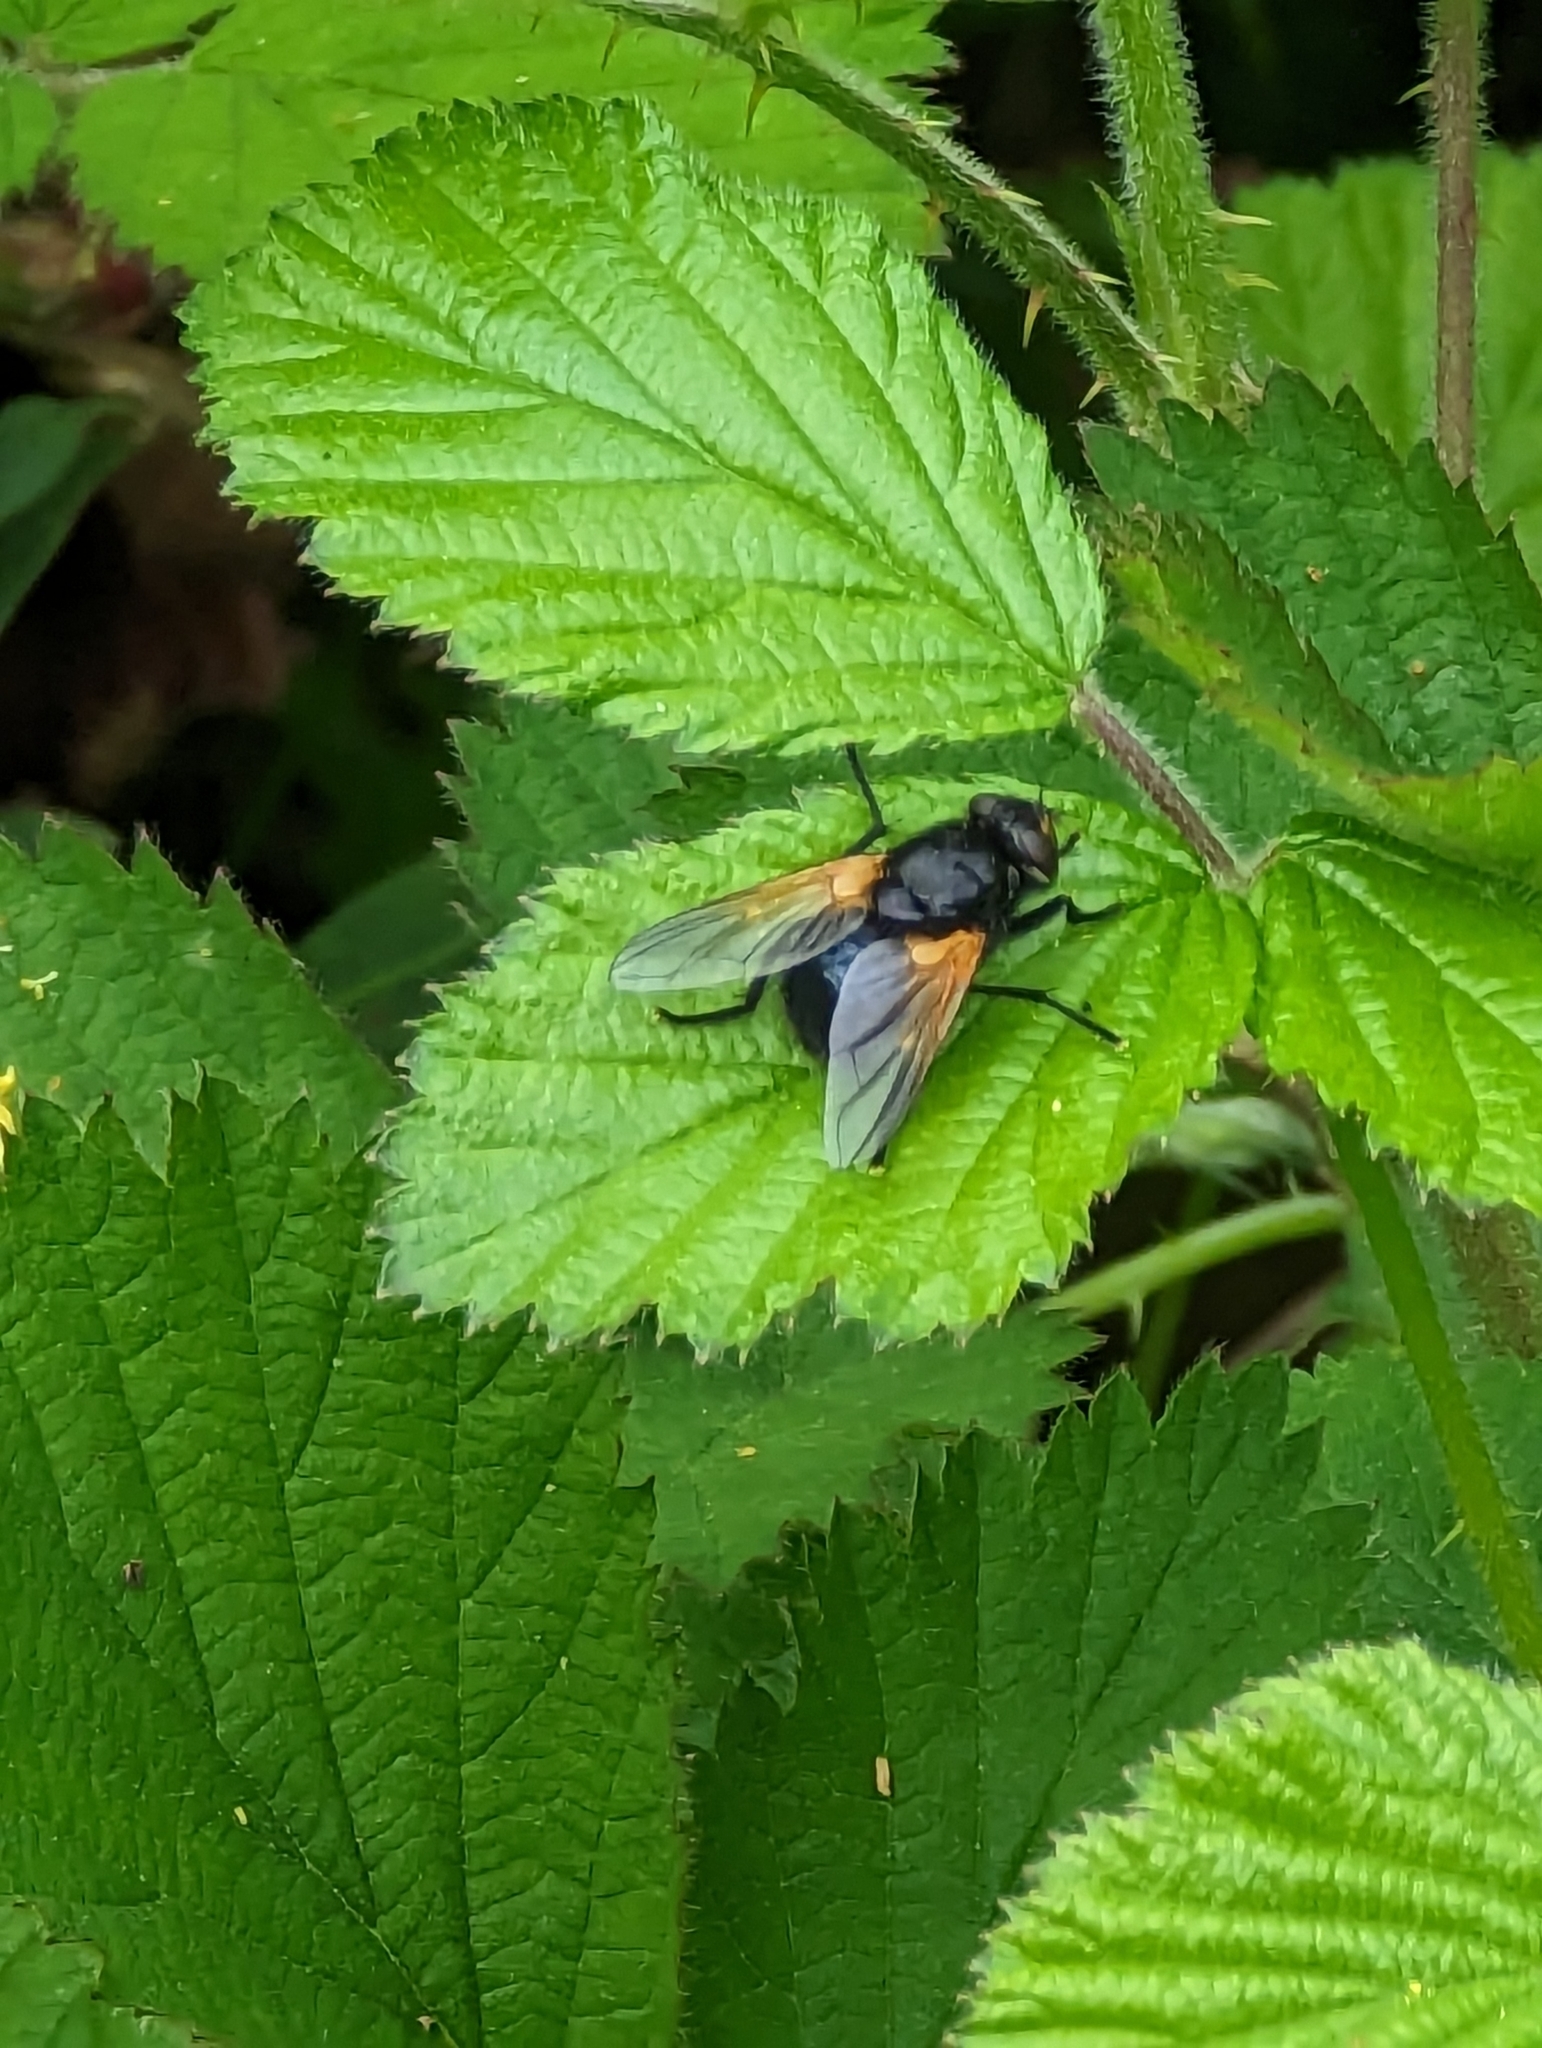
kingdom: Animalia
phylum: Arthropoda
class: Insecta
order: Diptera
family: Muscidae
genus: Mesembrina
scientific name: Mesembrina meridiana
